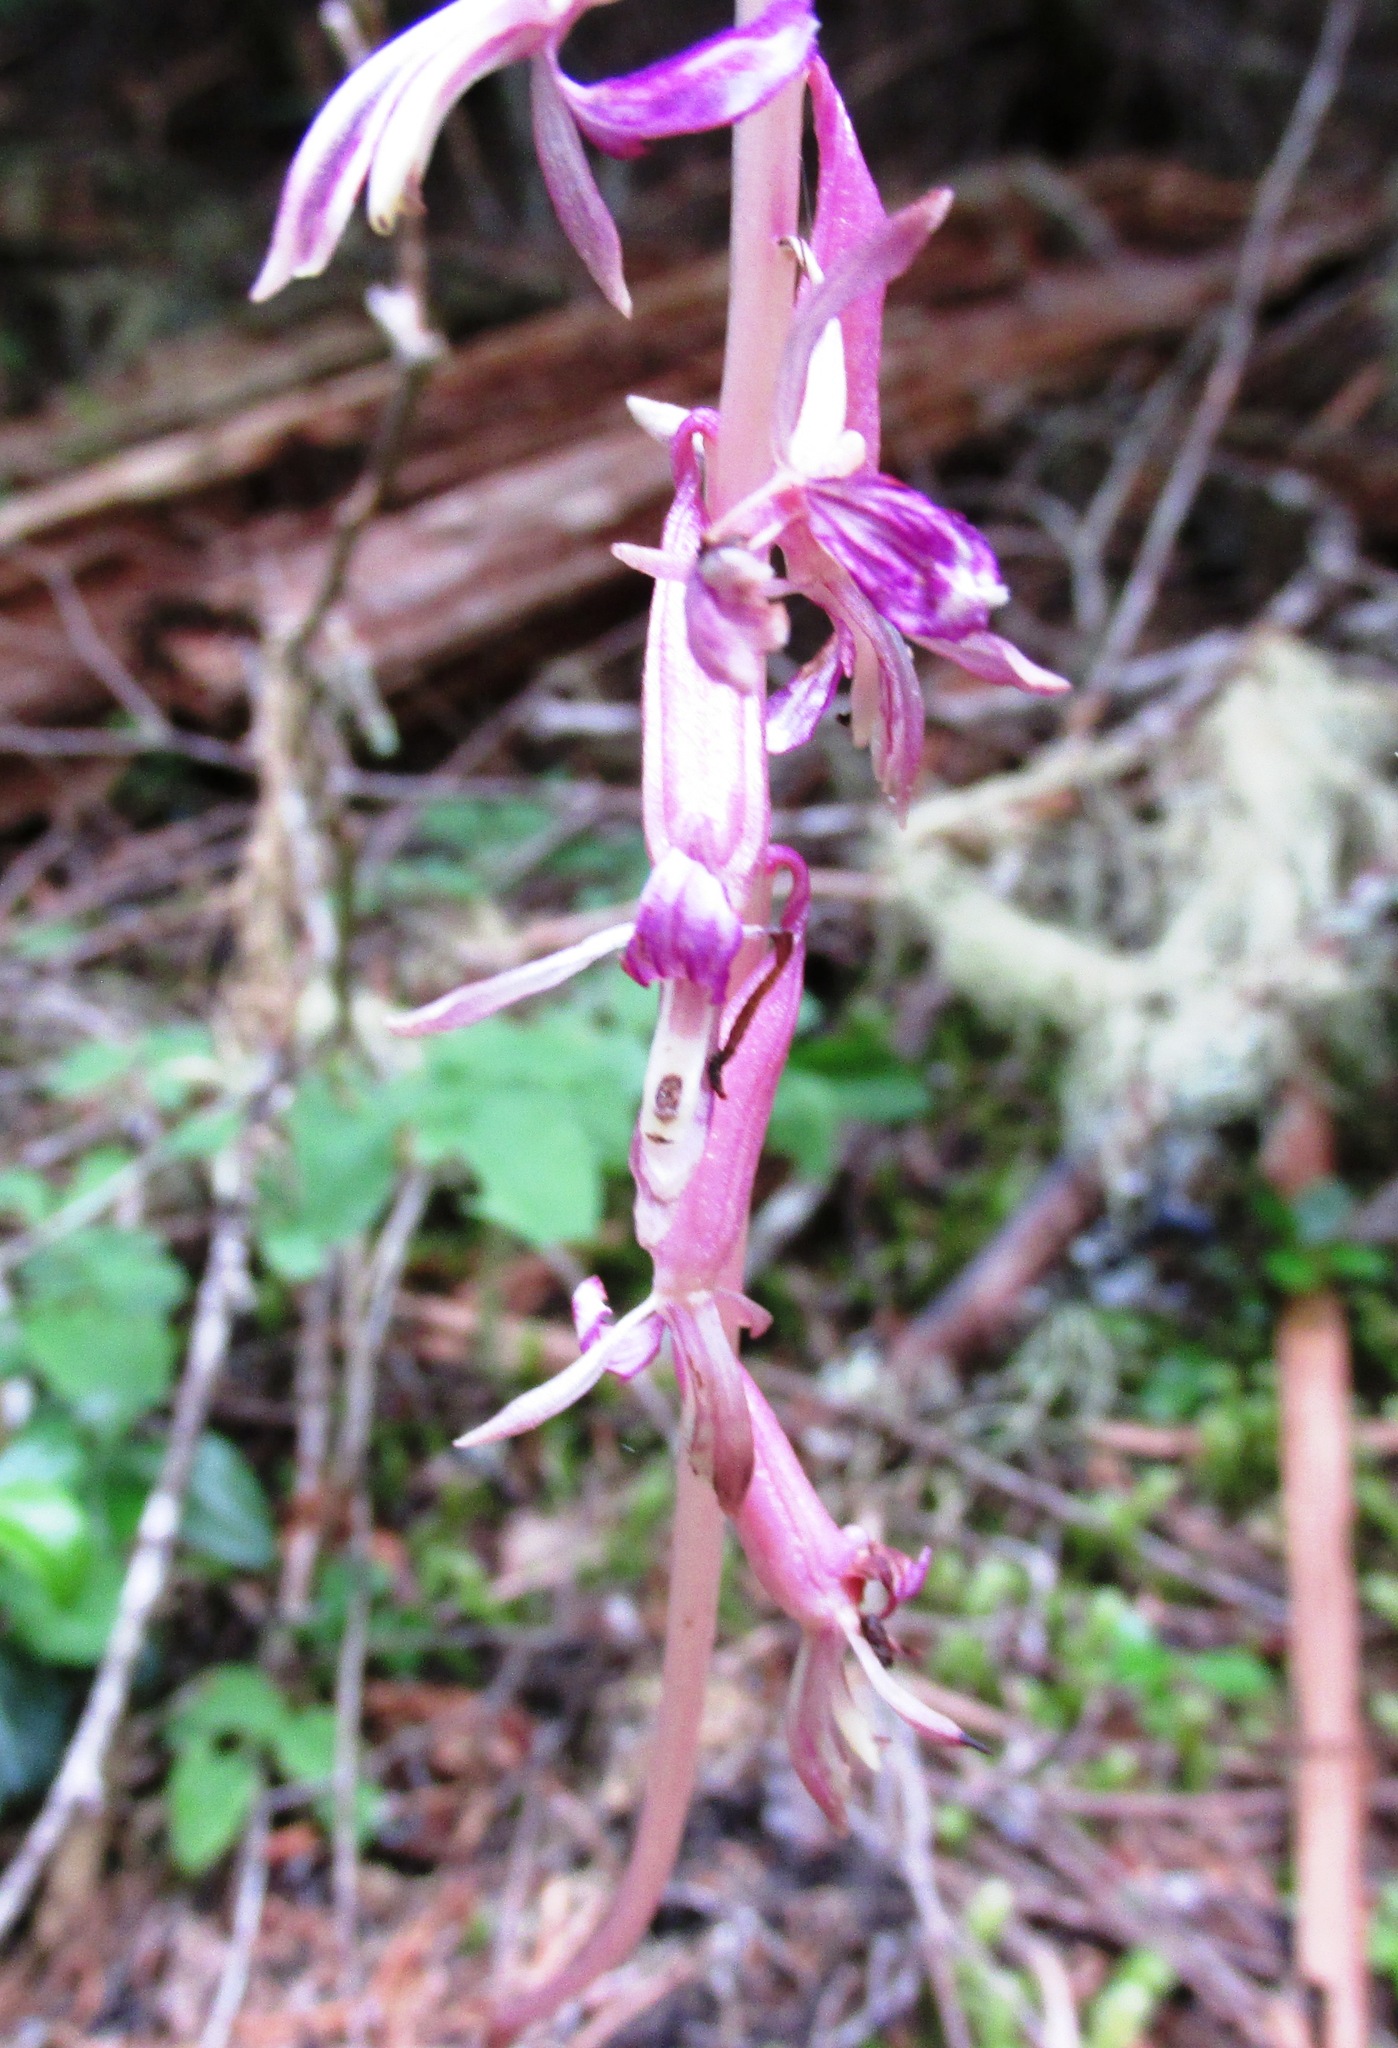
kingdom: Plantae
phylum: Tracheophyta
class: Liliopsida
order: Asparagales
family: Orchidaceae
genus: Corallorhiza
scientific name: Corallorhiza mertensiana
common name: Pacific coralroot
